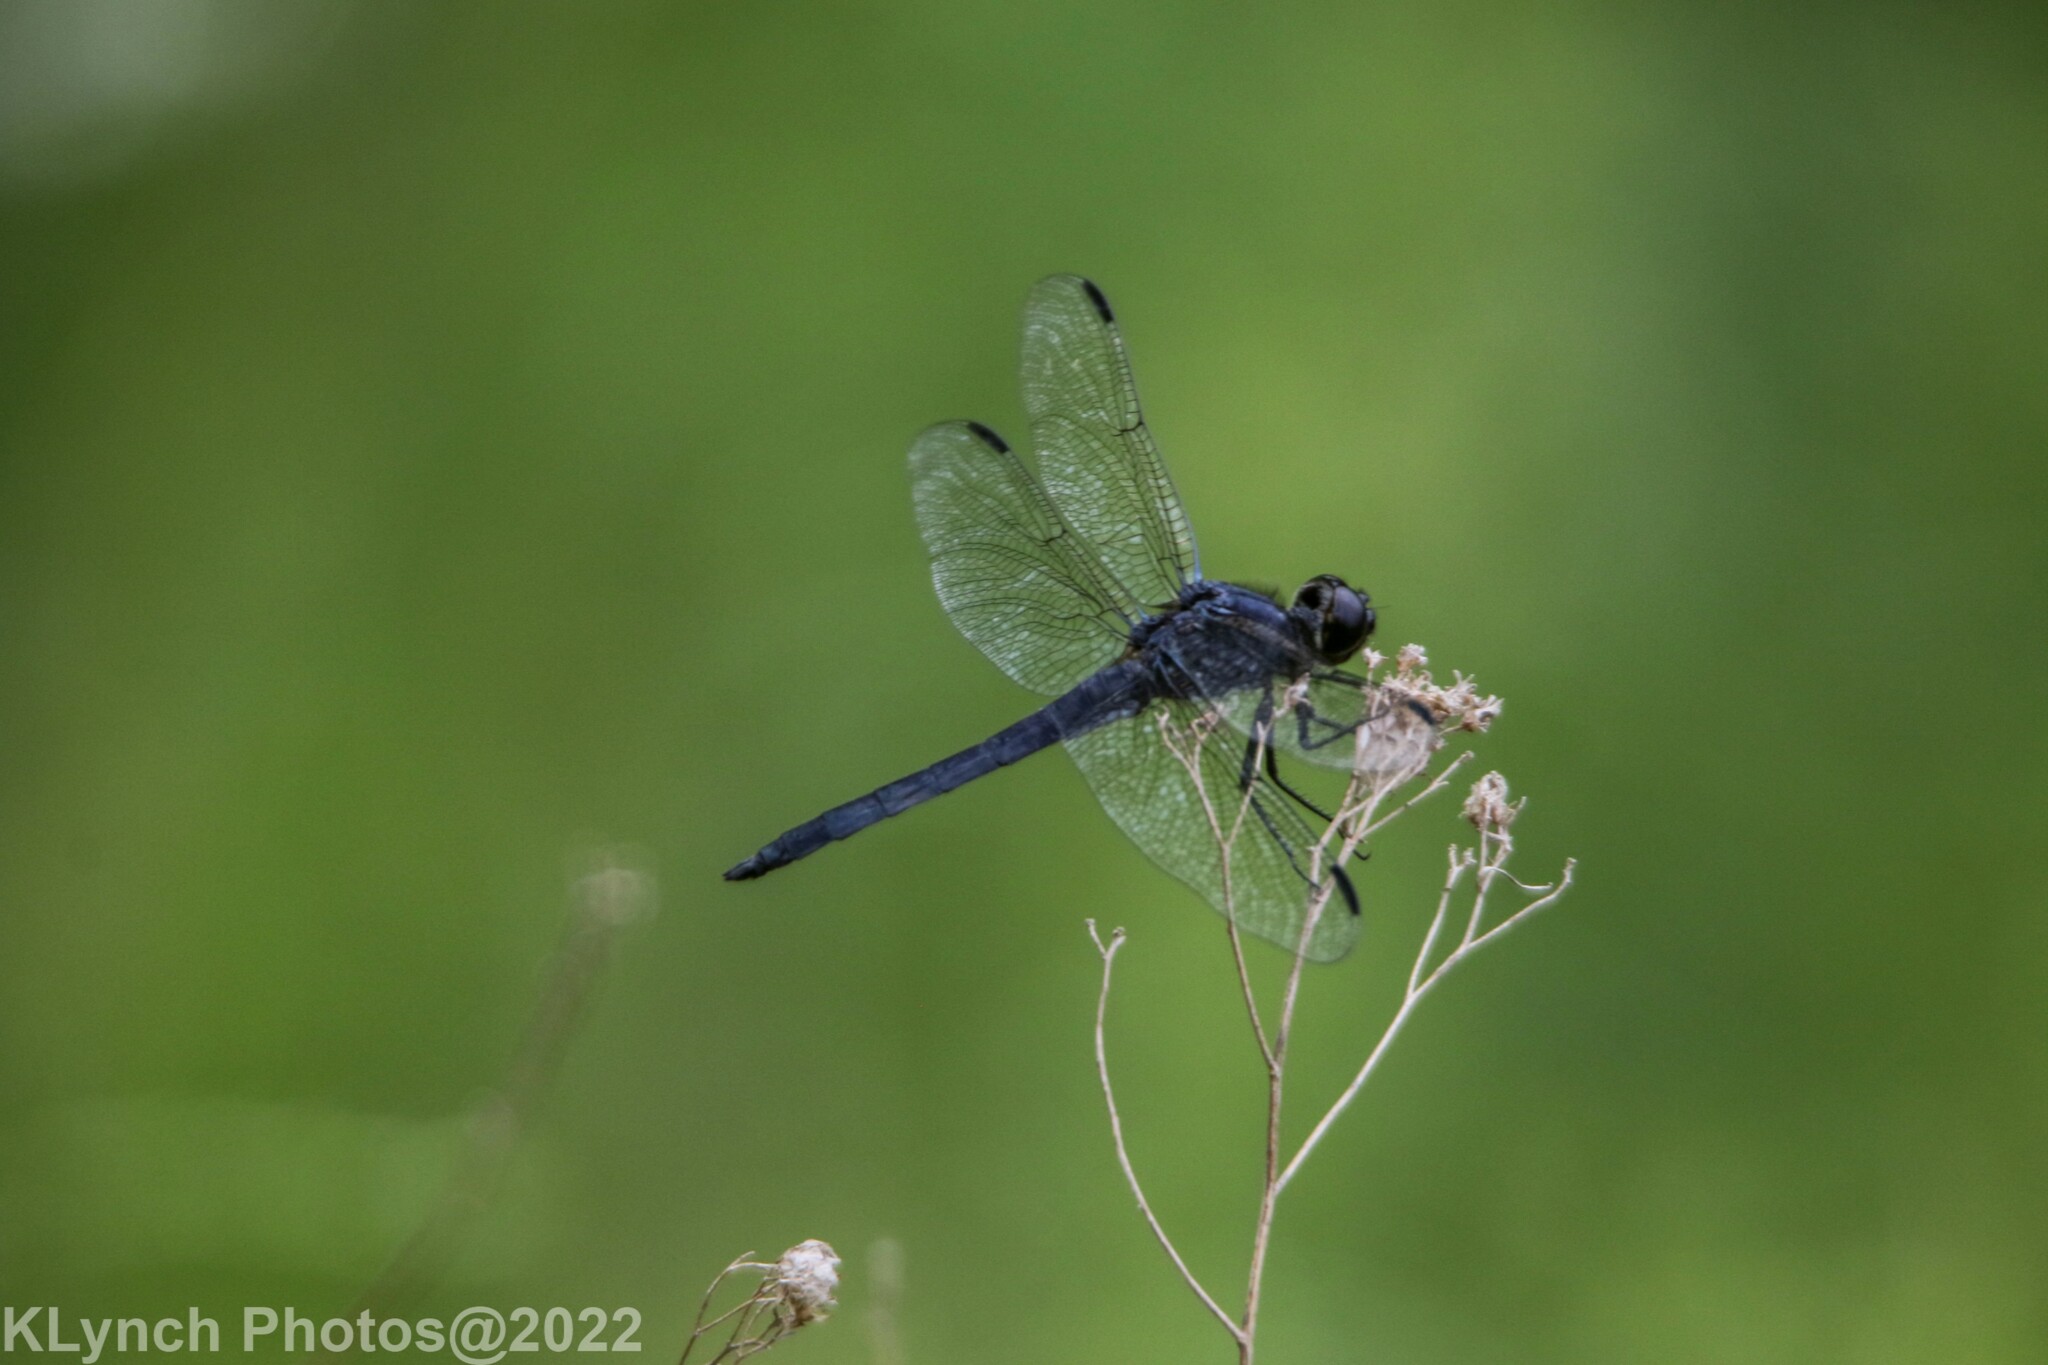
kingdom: Animalia
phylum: Arthropoda
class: Insecta
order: Odonata
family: Libellulidae
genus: Libellula
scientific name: Libellula incesta
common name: Slaty skimmer
